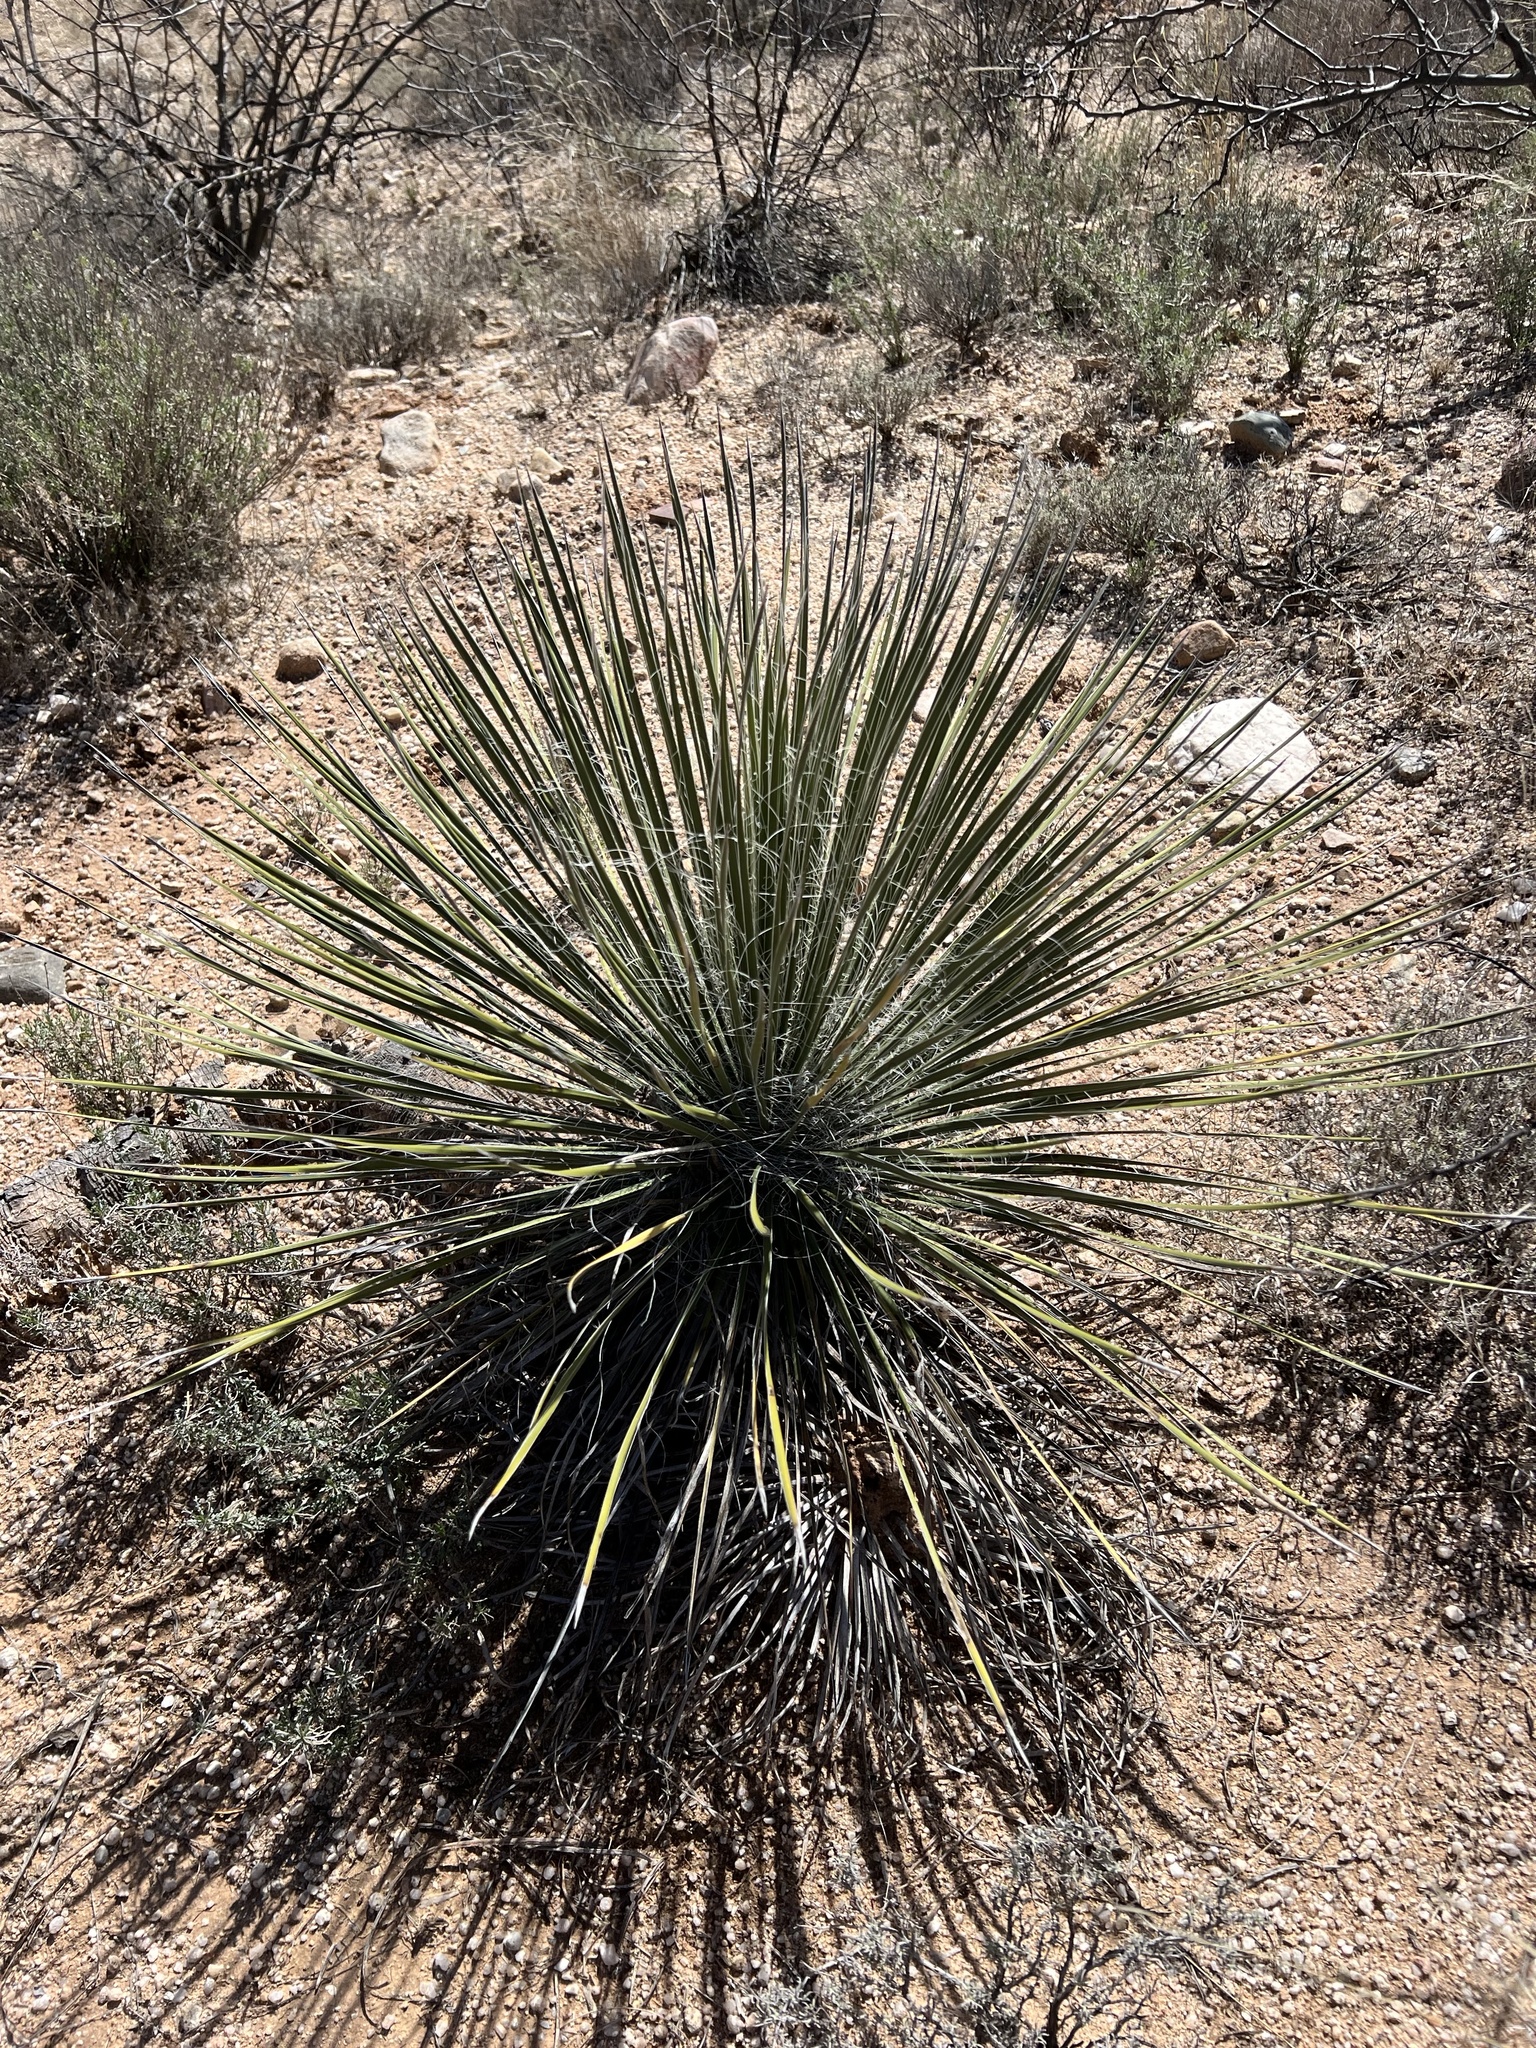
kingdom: Plantae
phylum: Tracheophyta
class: Liliopsida
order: Asparagales
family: Asparagaceae
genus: Yucca
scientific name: Yucca elata
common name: Palmella
